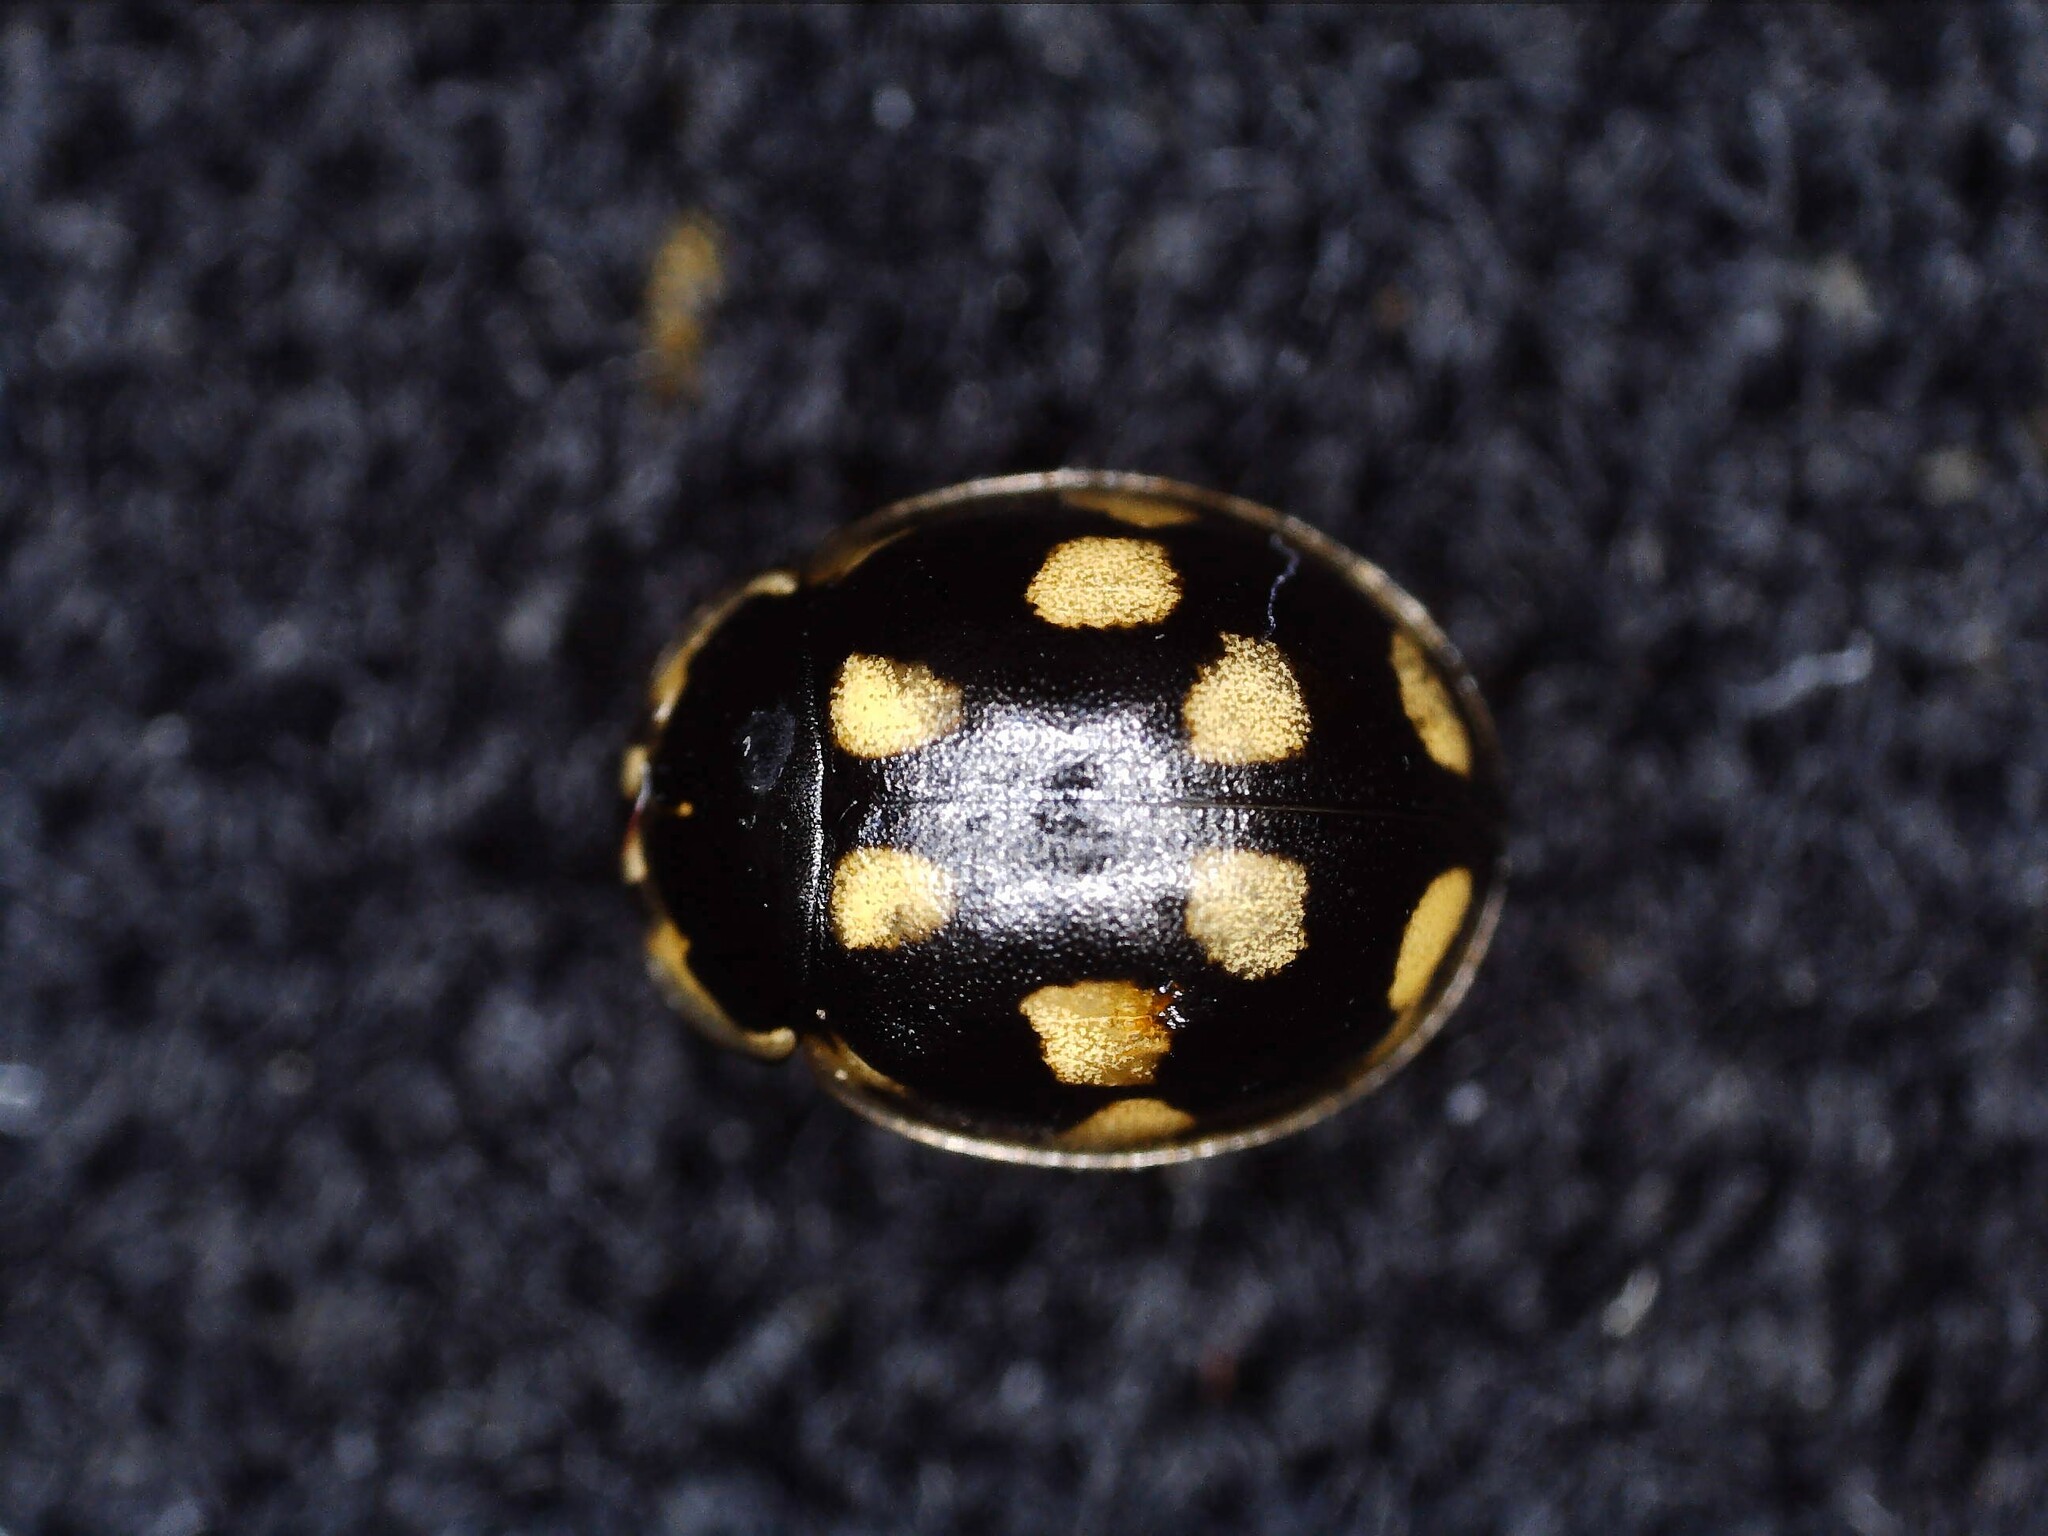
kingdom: Animalia
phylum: Arthropoda
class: Insecta
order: Coleoptera
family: Coccinellidae
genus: Propylaea
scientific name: Propylaea quatuordecimpunctata
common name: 14-spotted ladybird beetle
